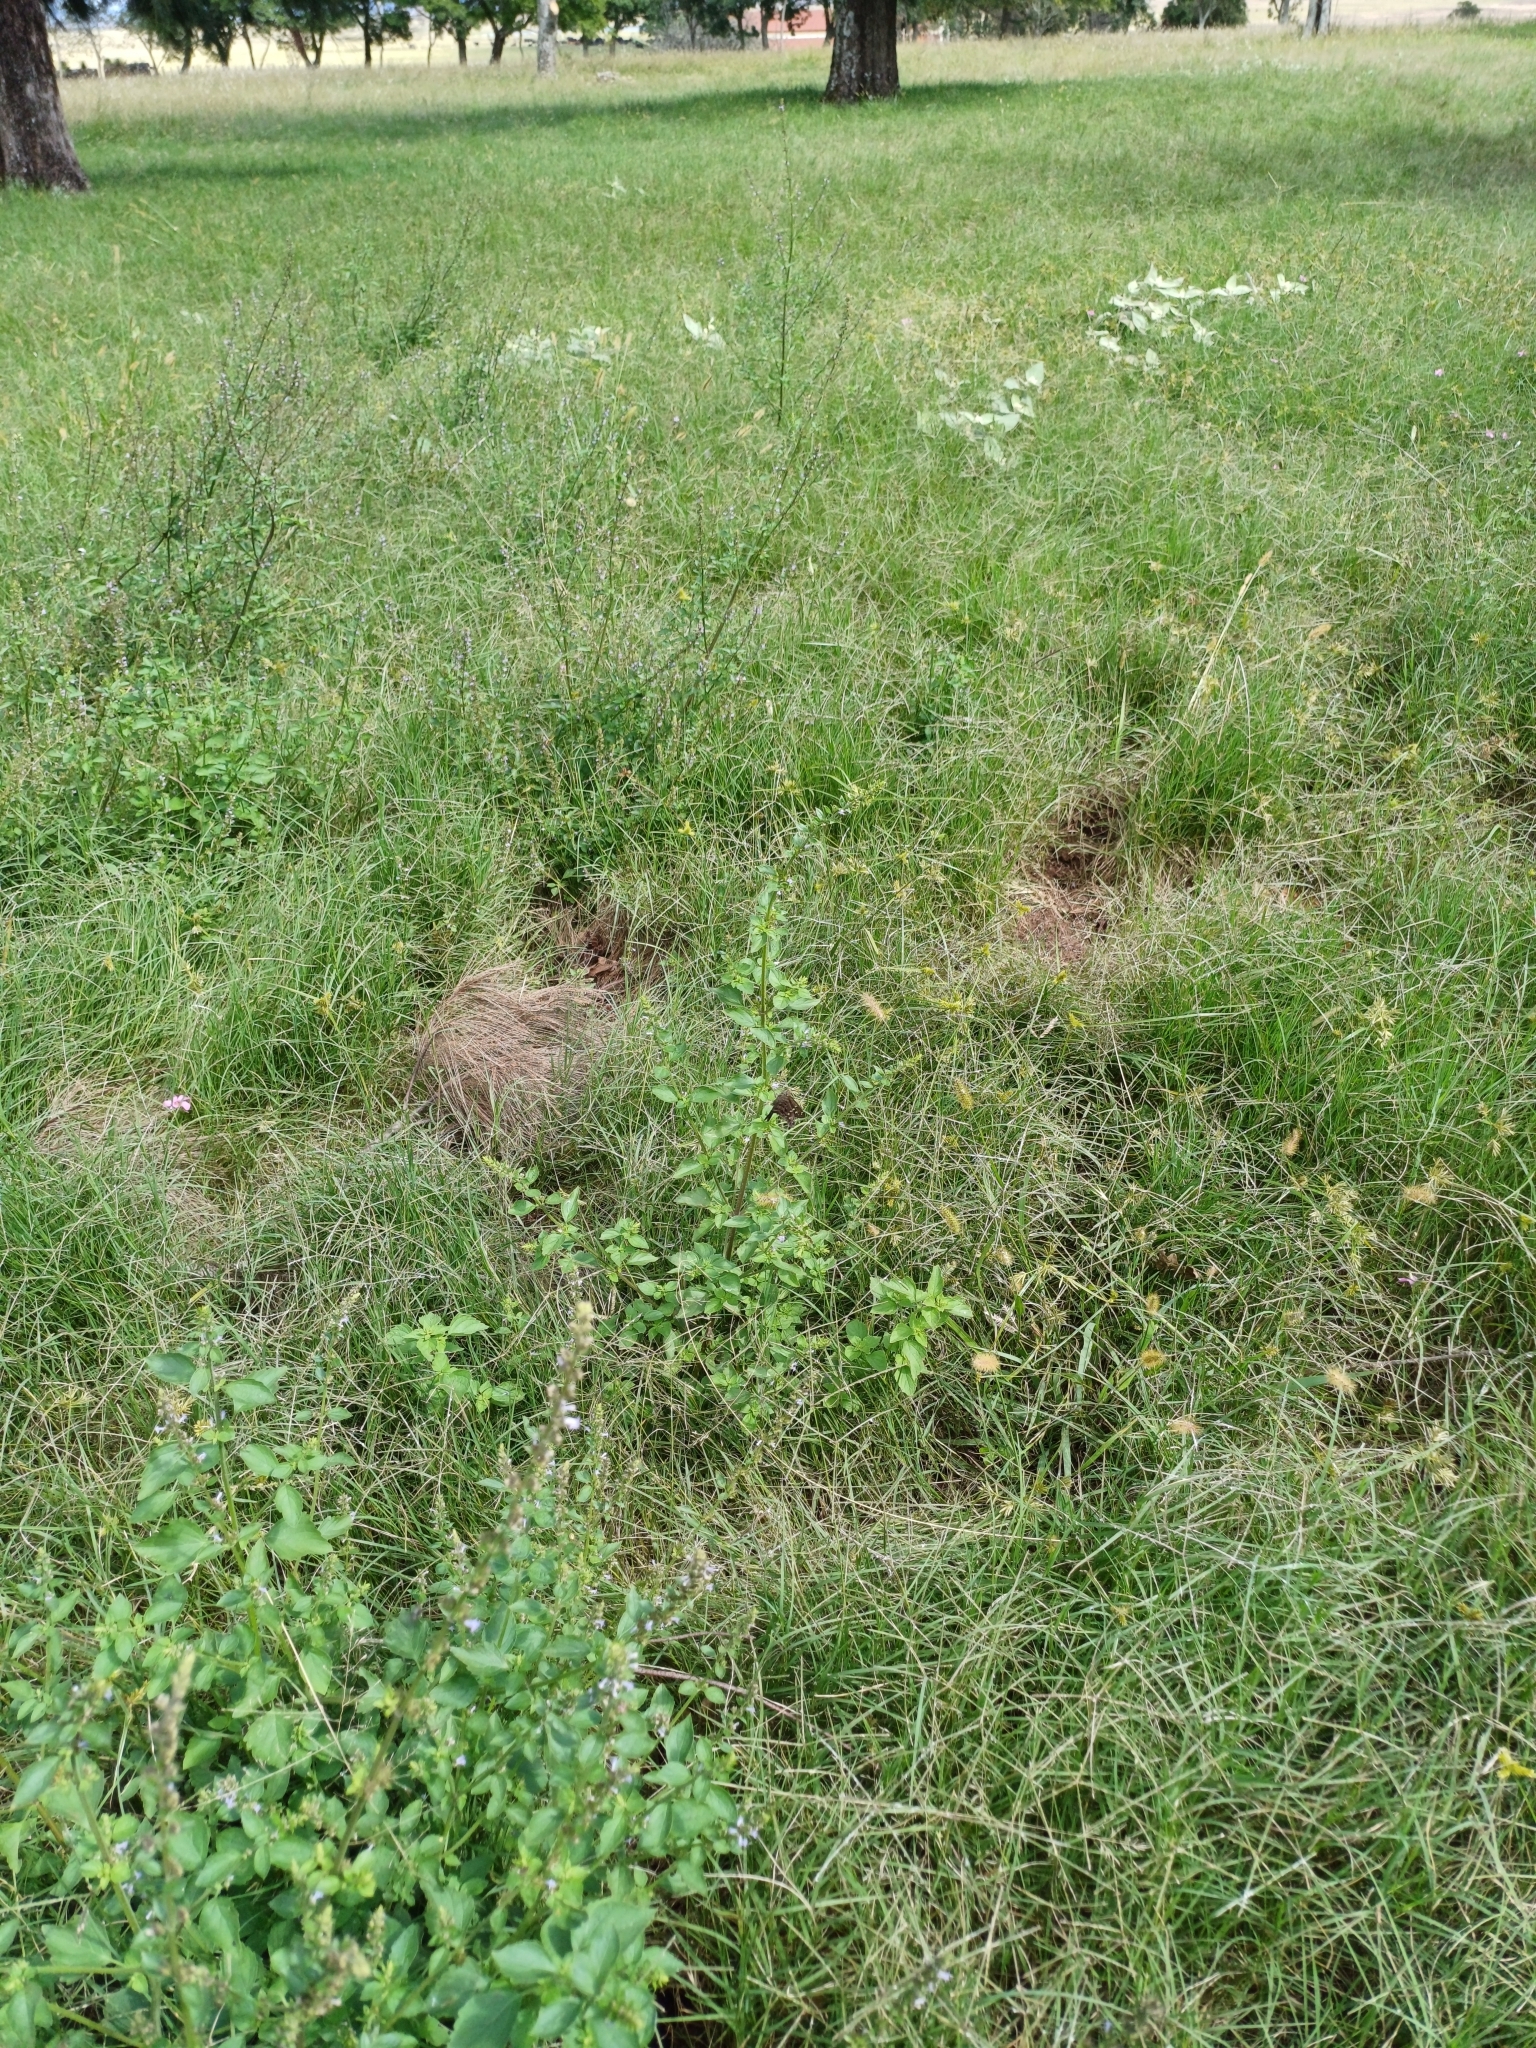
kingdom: Animalia
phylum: Arthropoda
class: Insecta
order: Lepidoptera
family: Hesperiidae
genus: Thorybes
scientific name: Thorybes
